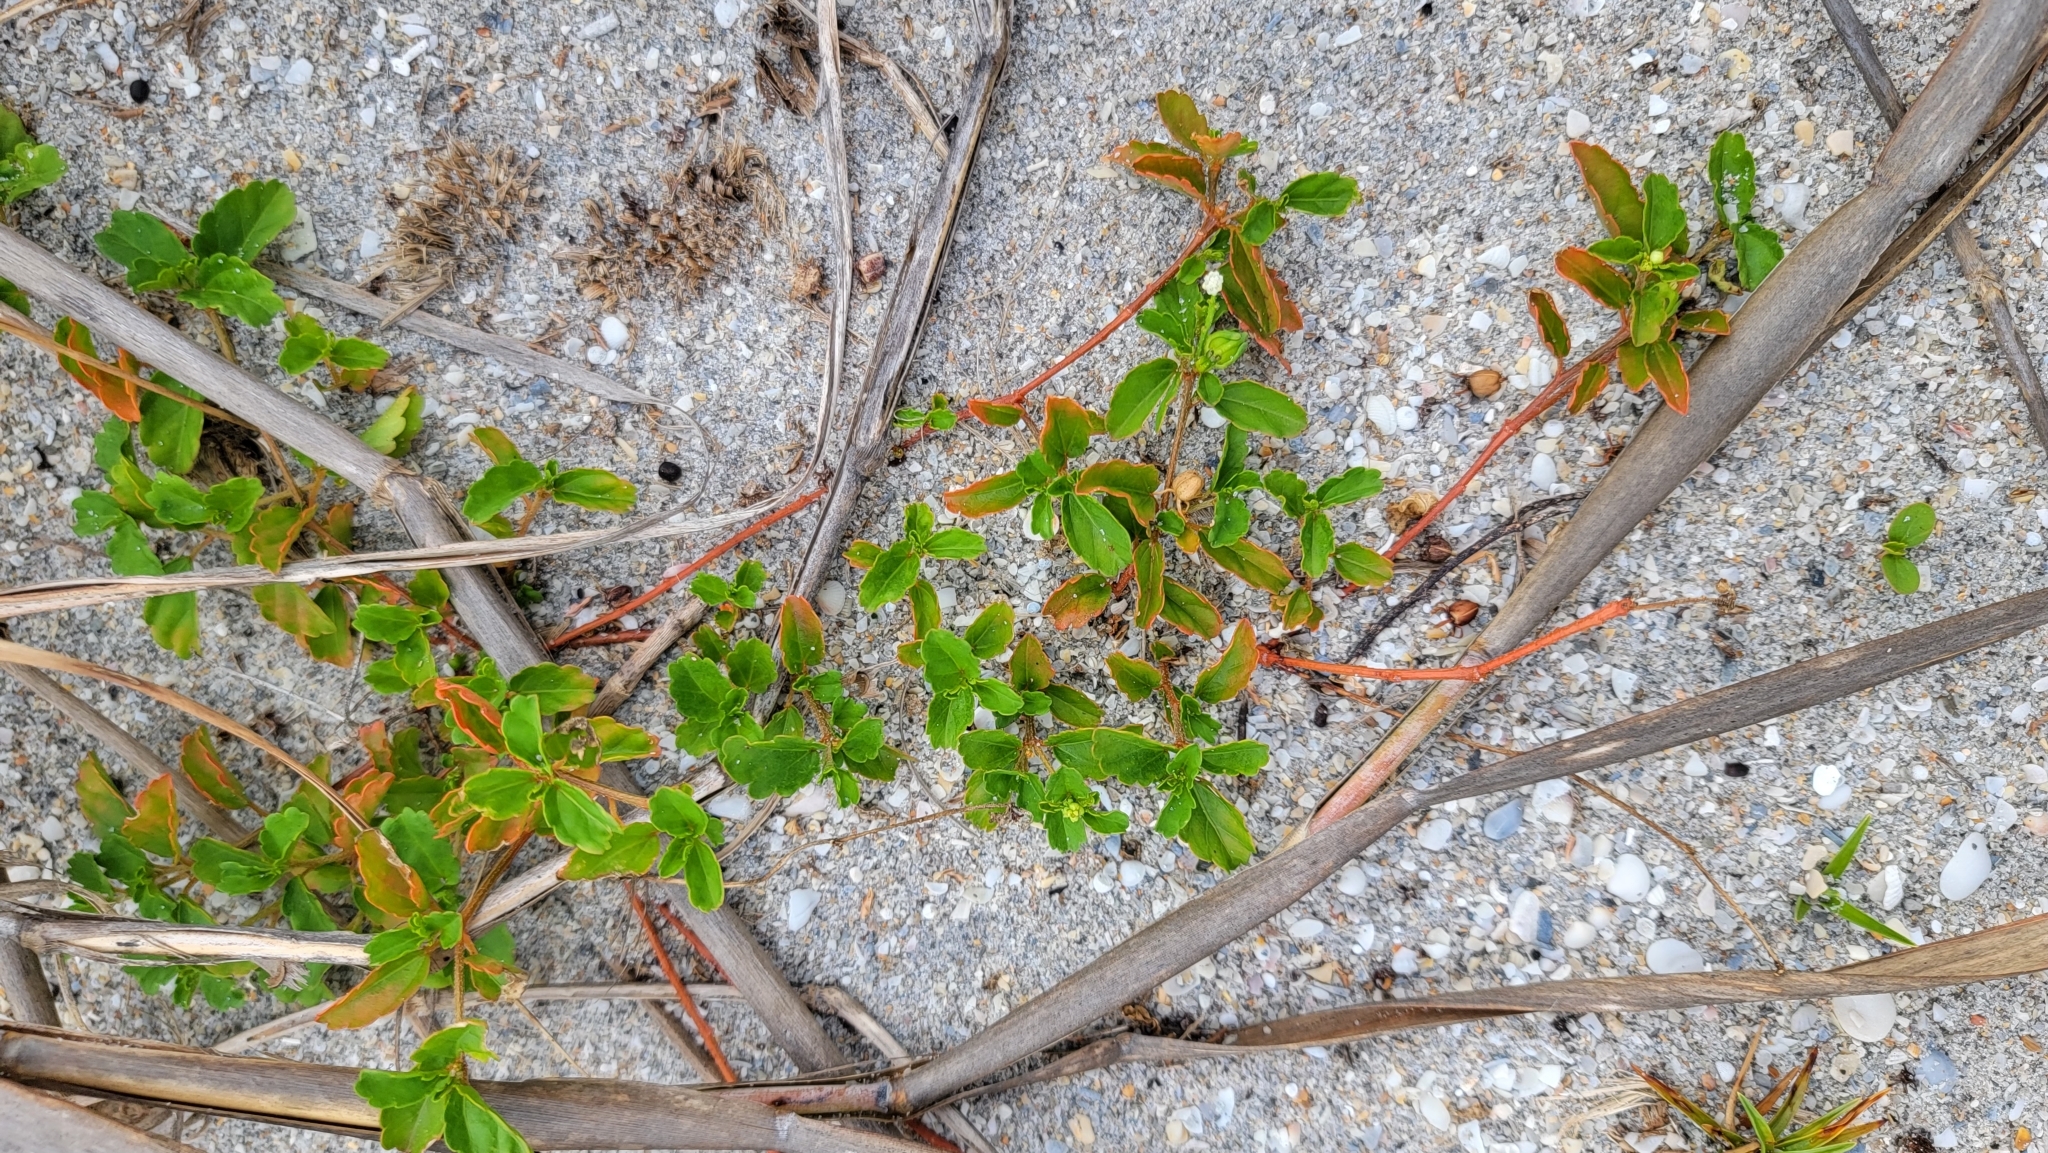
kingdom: Plantae
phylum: Tracheophyta
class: Magnoliopsida
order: Malpighiales
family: Euphorbiaceae
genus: Croton
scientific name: Croton glandulosus
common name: Tropic croton
